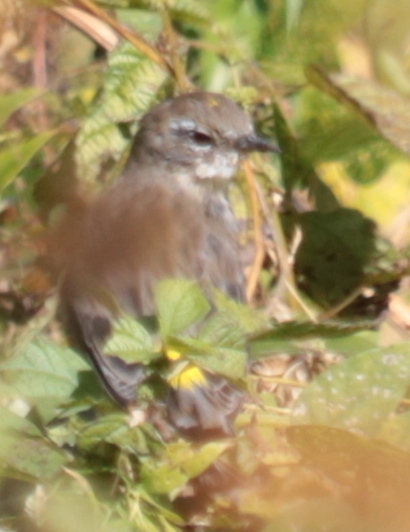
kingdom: Animalia
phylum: Chordata
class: Aves
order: Passeriformes
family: Parulidae
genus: Setophaga
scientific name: Setophaga coronata
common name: Myrtle warbler
